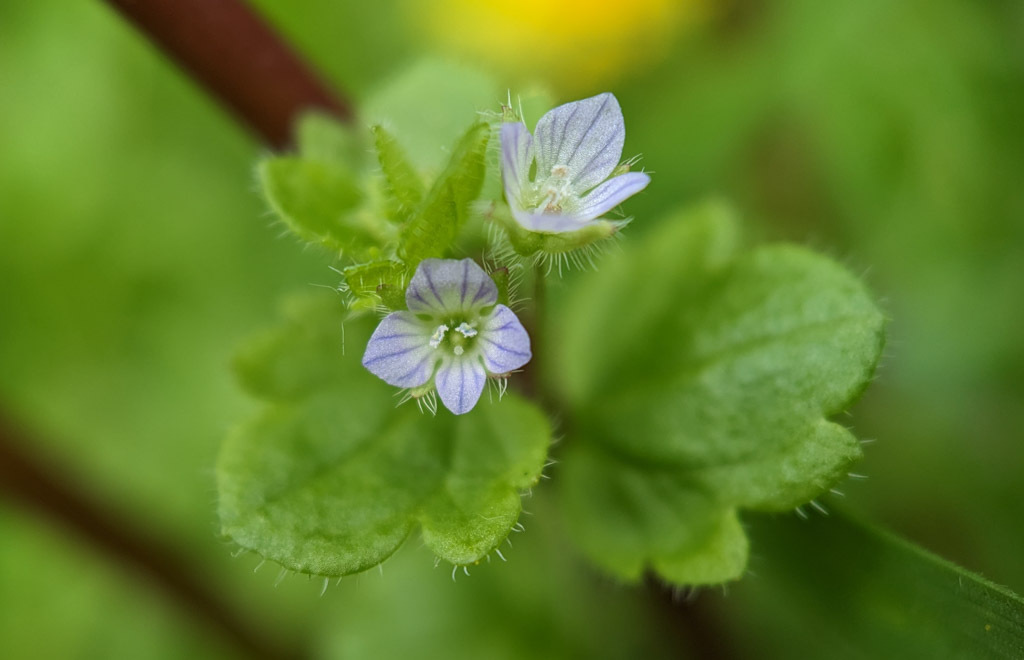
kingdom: Plantae
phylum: Tracheophyta
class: Magnoliopsida
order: Lamiales
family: Plantaginaceae
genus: Veronica
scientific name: Veronica sublobata
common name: False ivy-leaved speedwell
